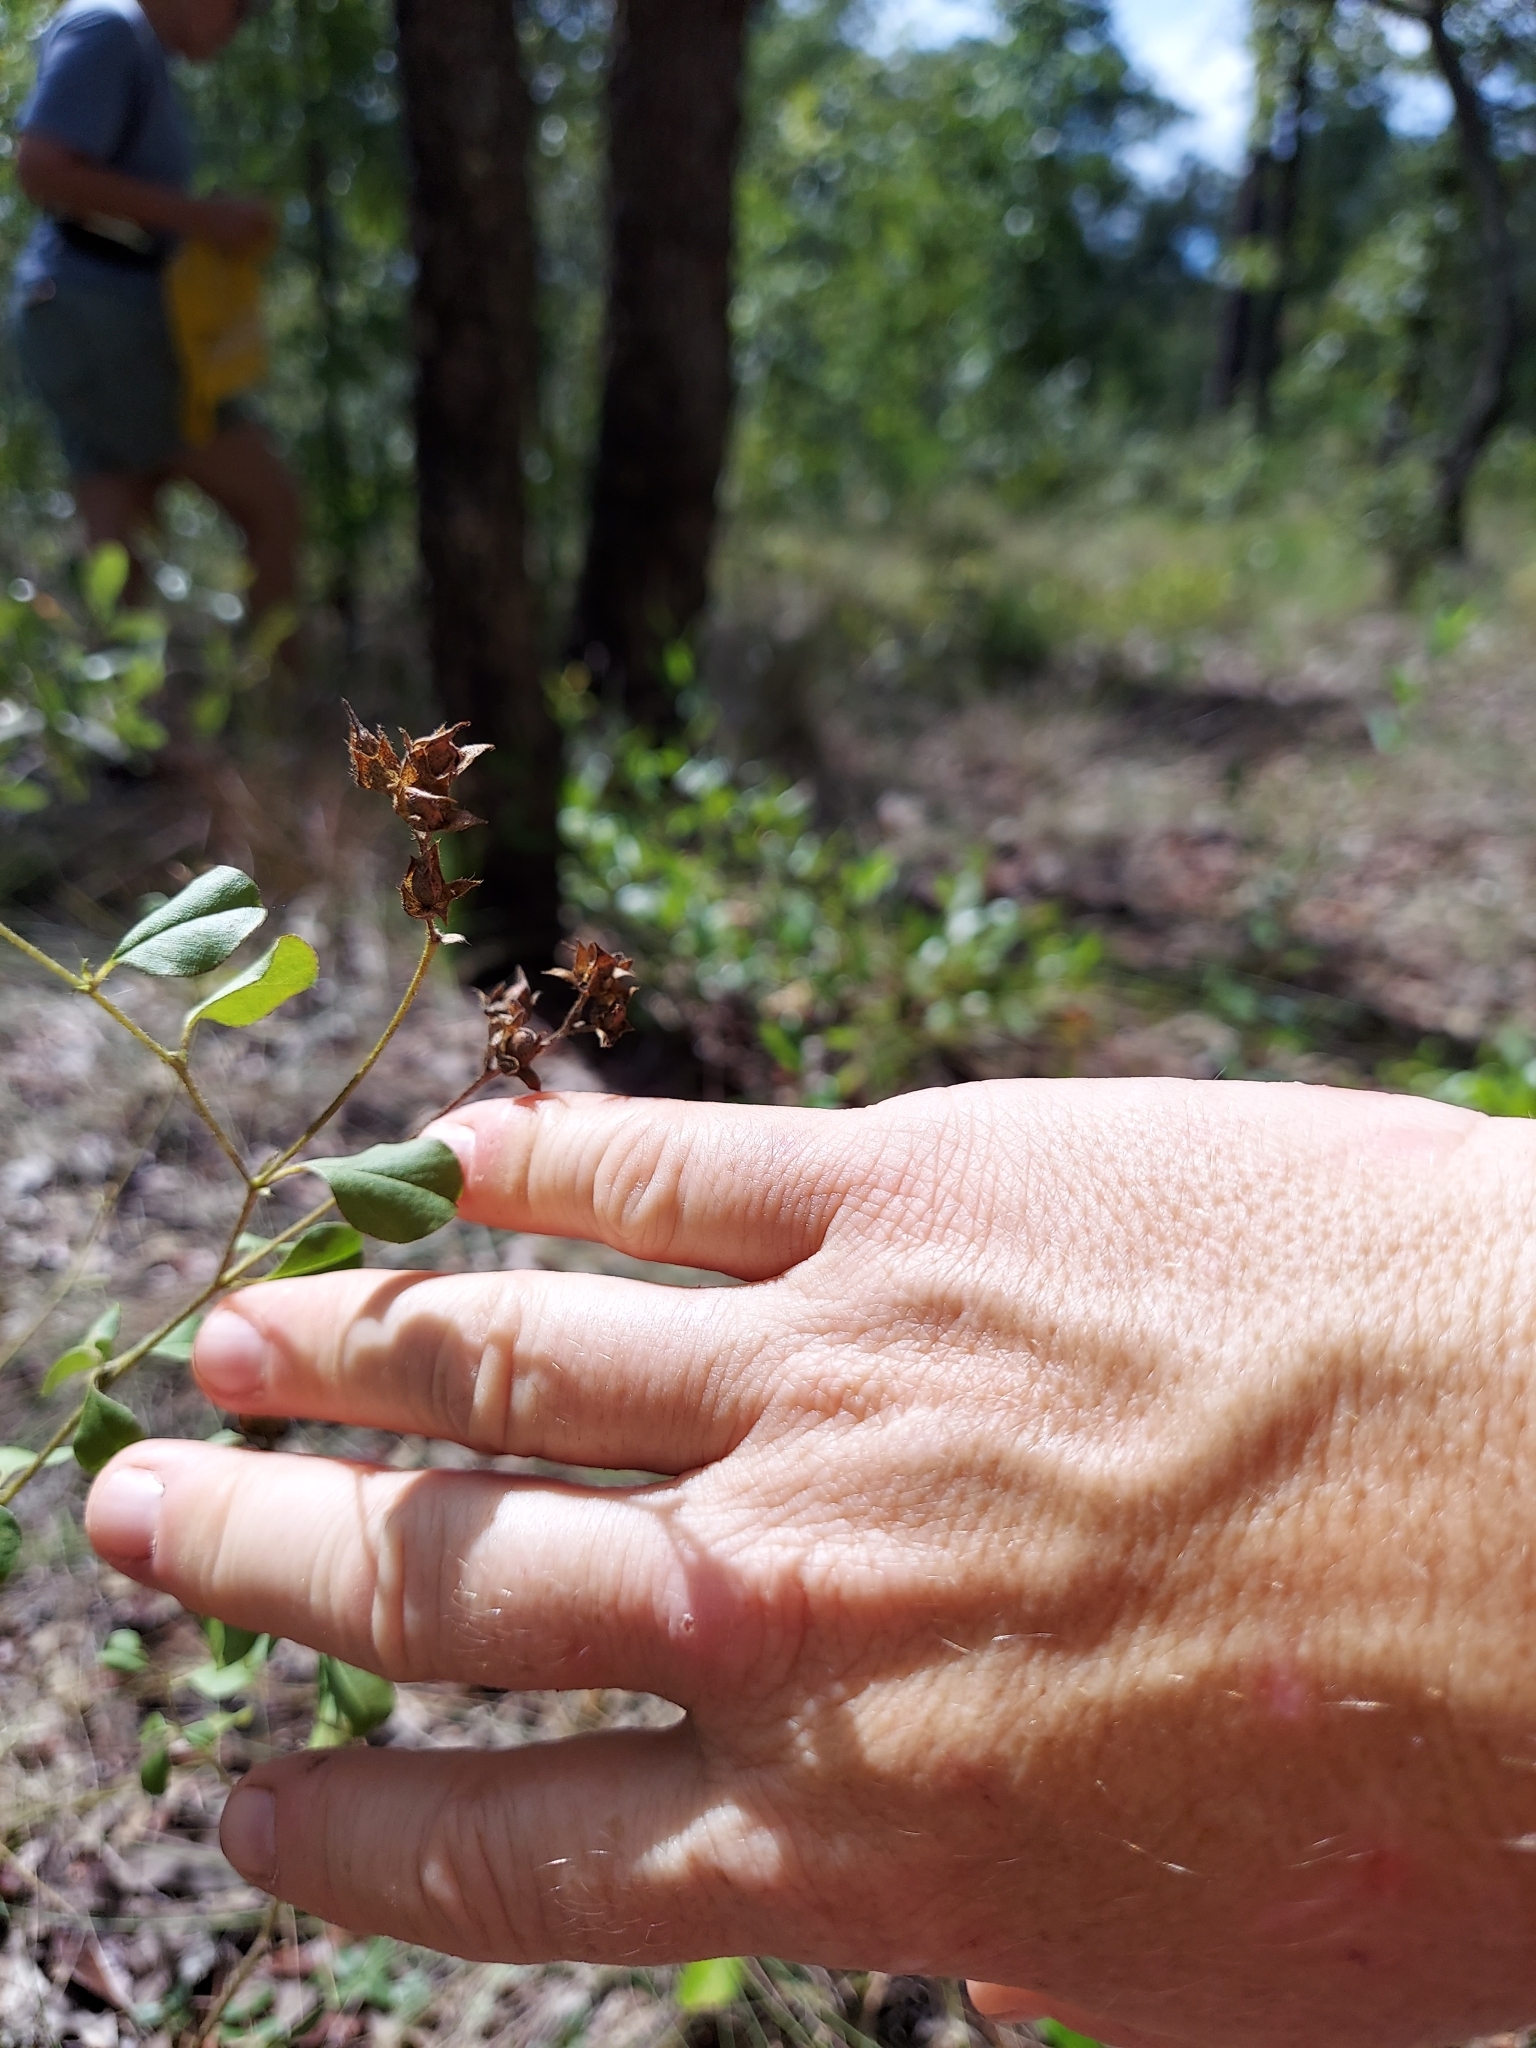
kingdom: Plantae
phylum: Tracheophyta
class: Magnoliopsida
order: Fabales
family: Fabaceae
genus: Pediomelum
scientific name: Pediomelum canescens
